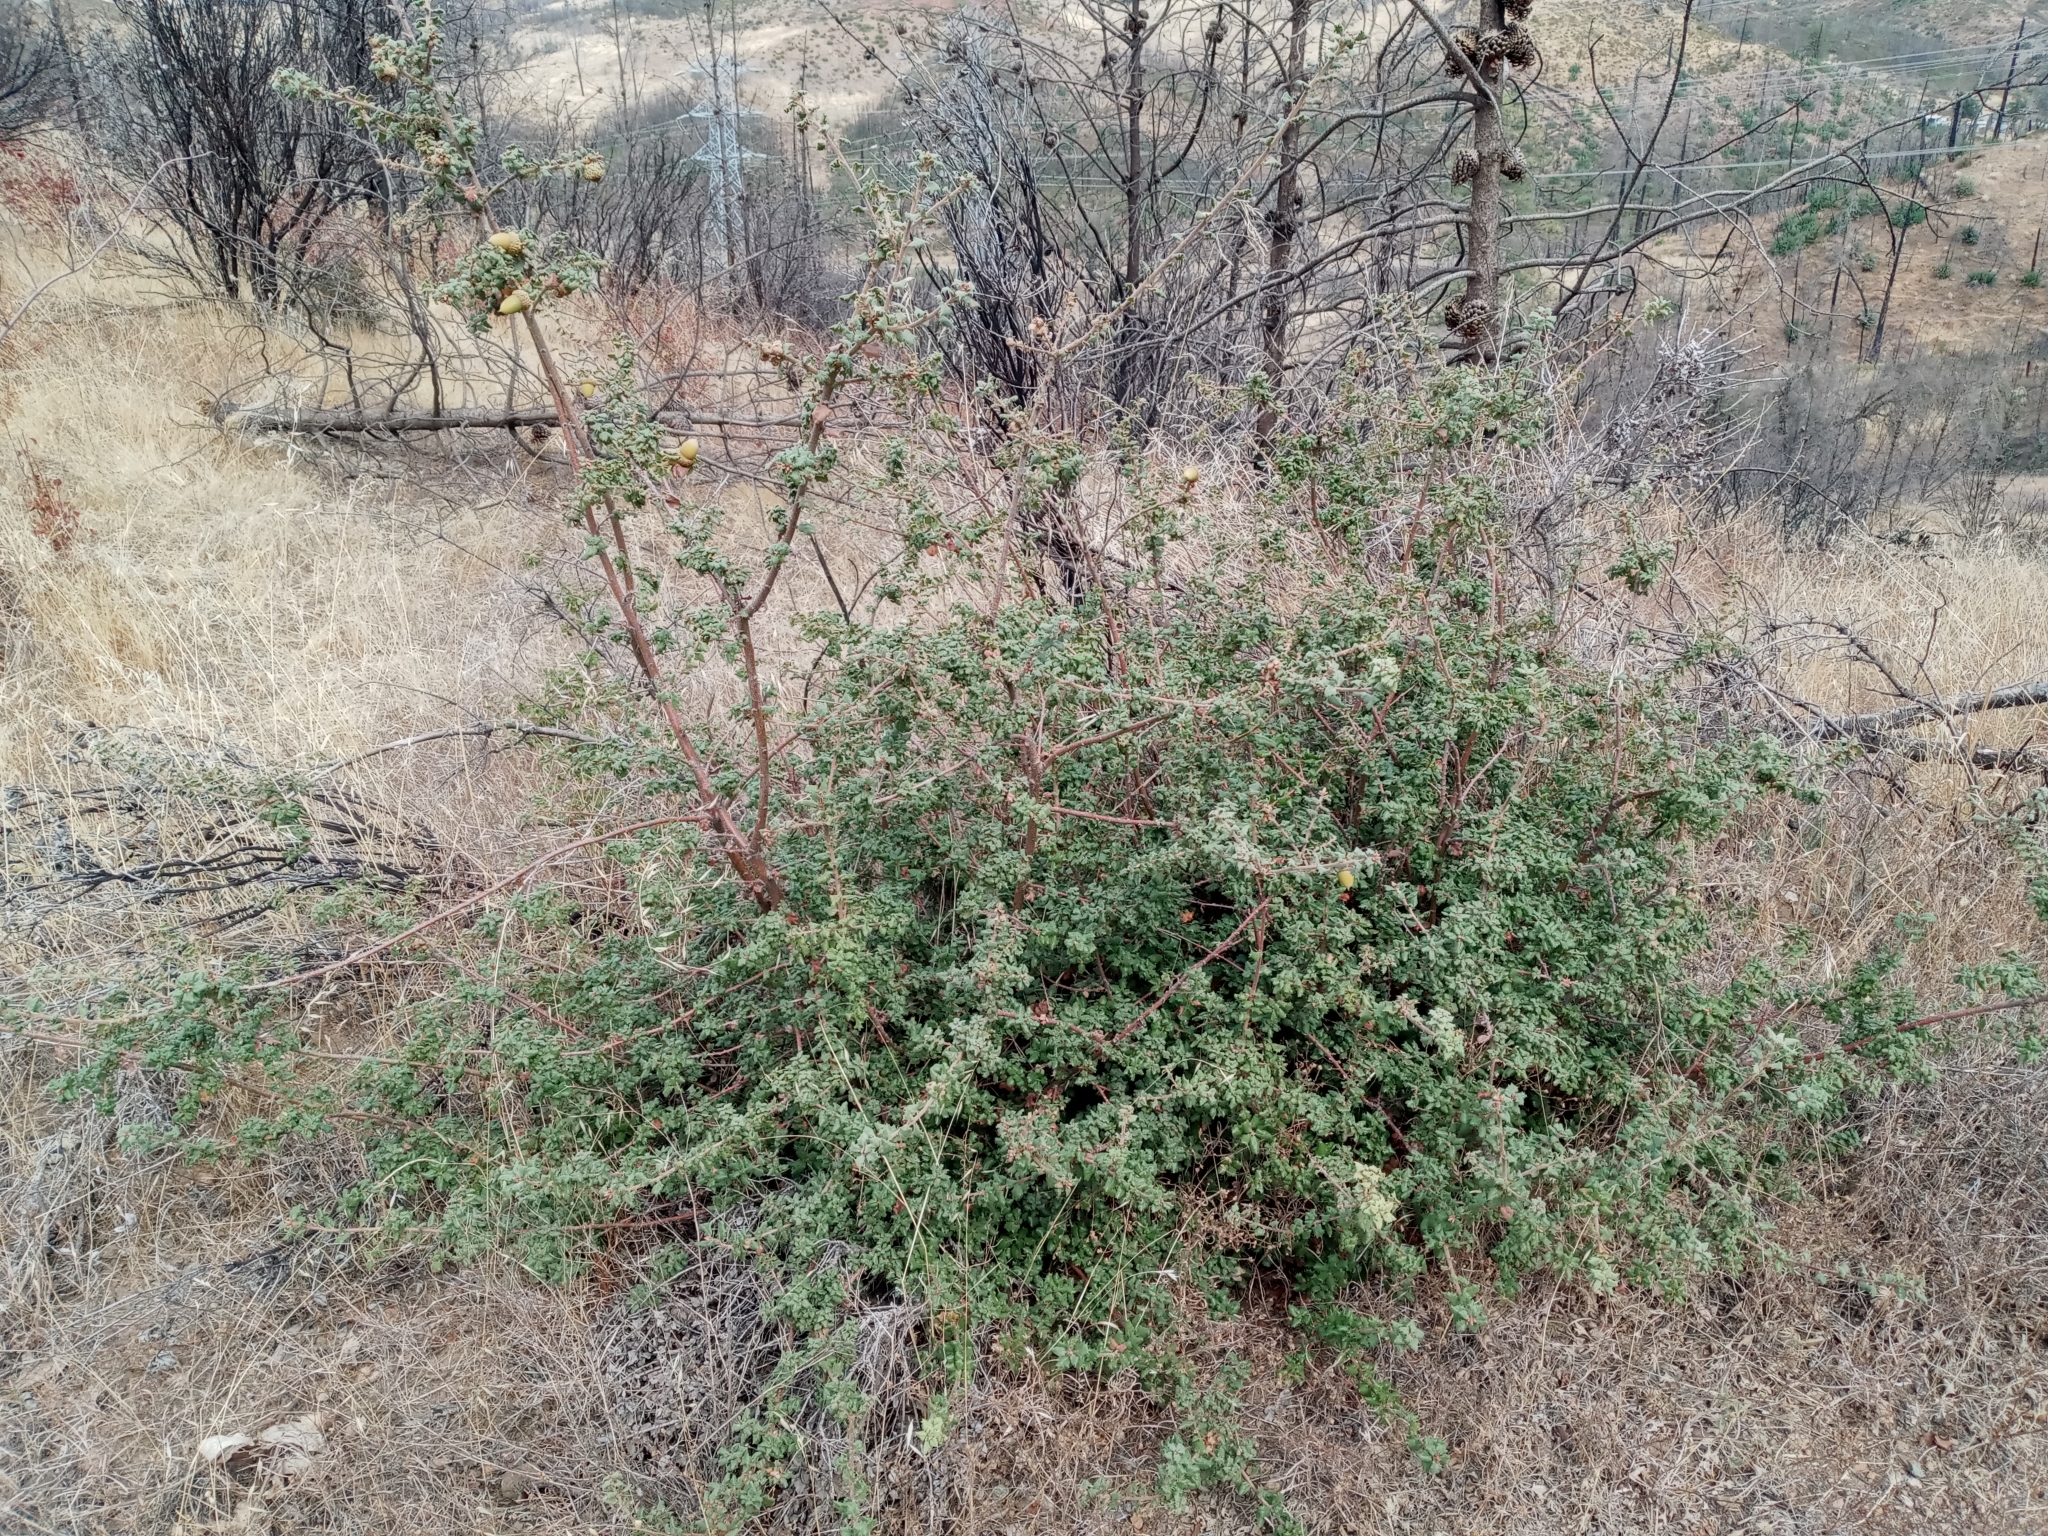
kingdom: Plantae
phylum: Tracheophyta
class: Magnoliopsida
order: Fagales
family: Fagaceae
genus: Quercus
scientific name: Quercus durata
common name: Leather oak
